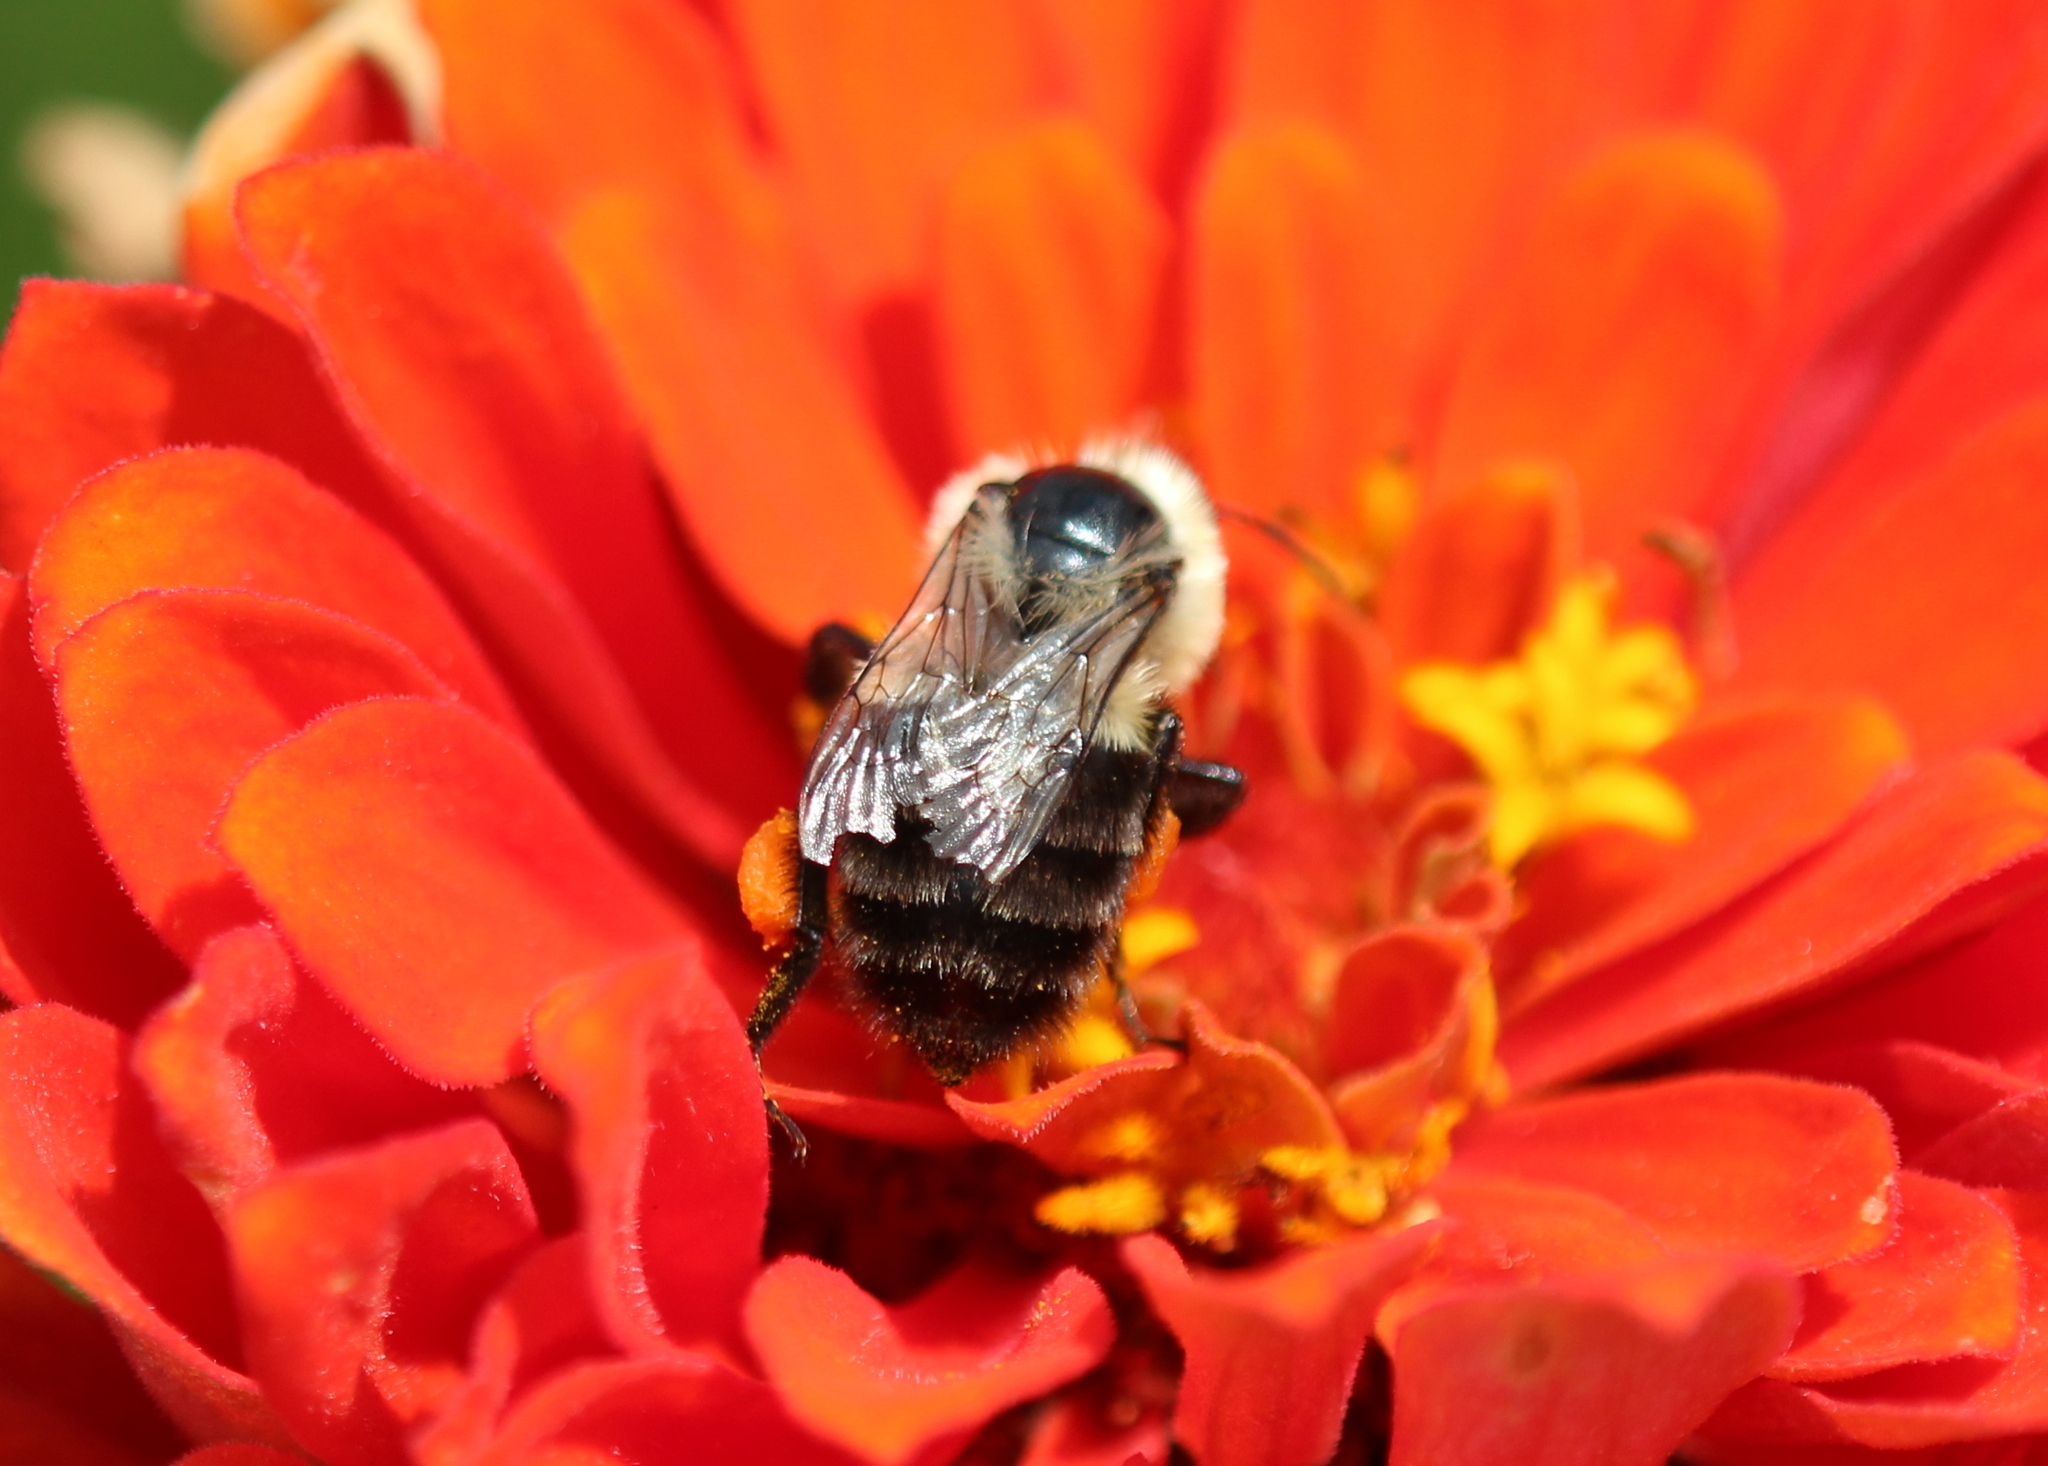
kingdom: Animalia
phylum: Arthropoda
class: Insecta
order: Hymenoptera
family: Apidae
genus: Bombus
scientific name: Bombus impatiens
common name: Common eastern bumble bee
